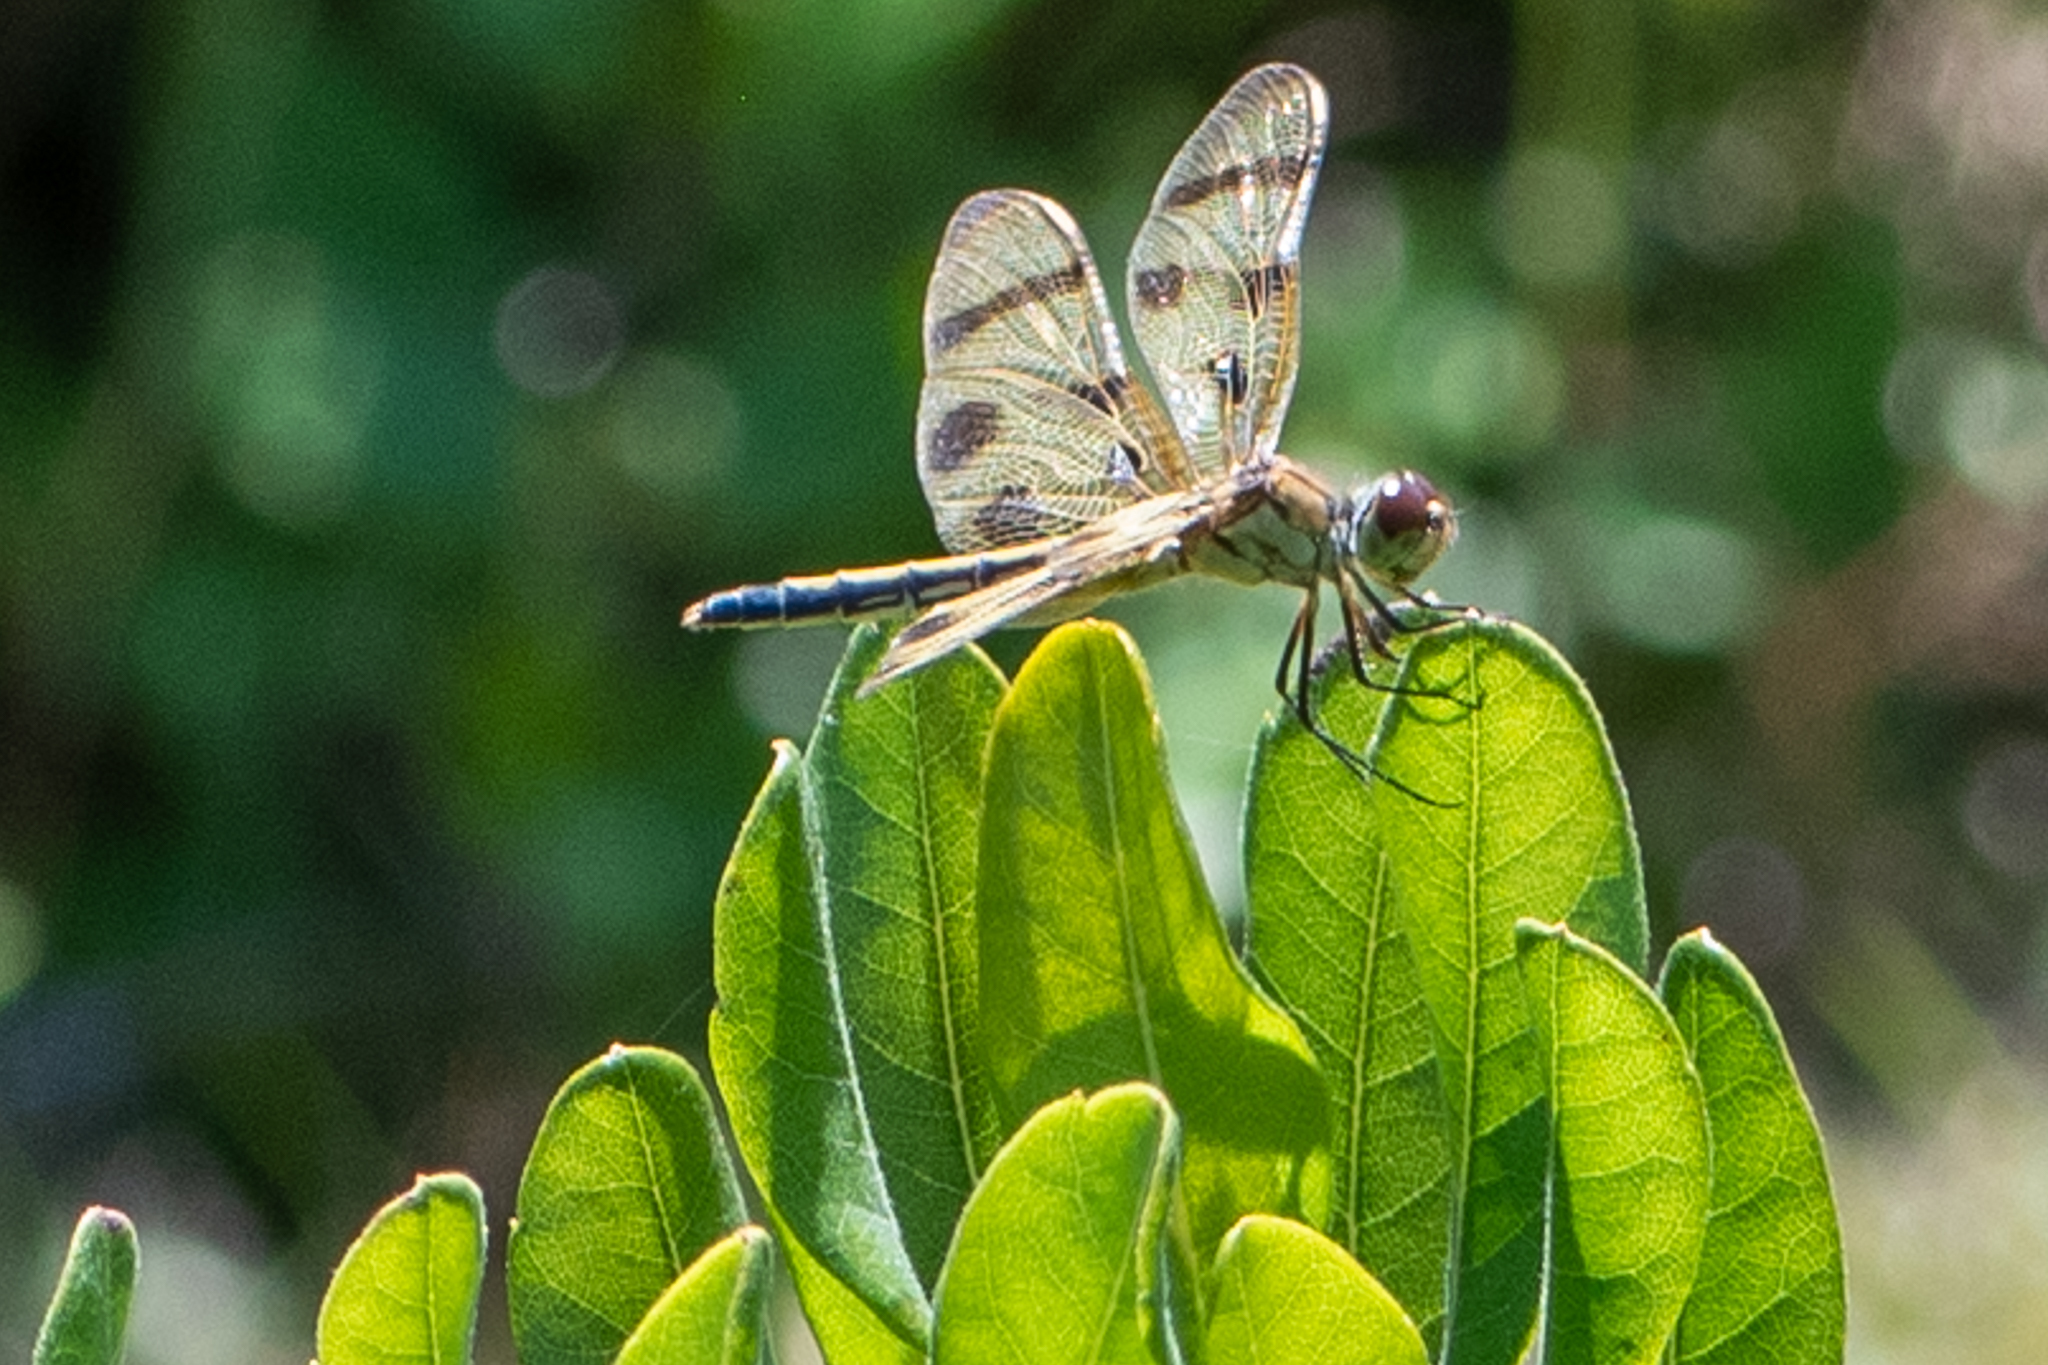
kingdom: Animalia
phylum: Arthropoda
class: Insecta
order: Odonata
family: Libellulidae
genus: Celithemis
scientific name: Celithemis eponina
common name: Halloween pennant
